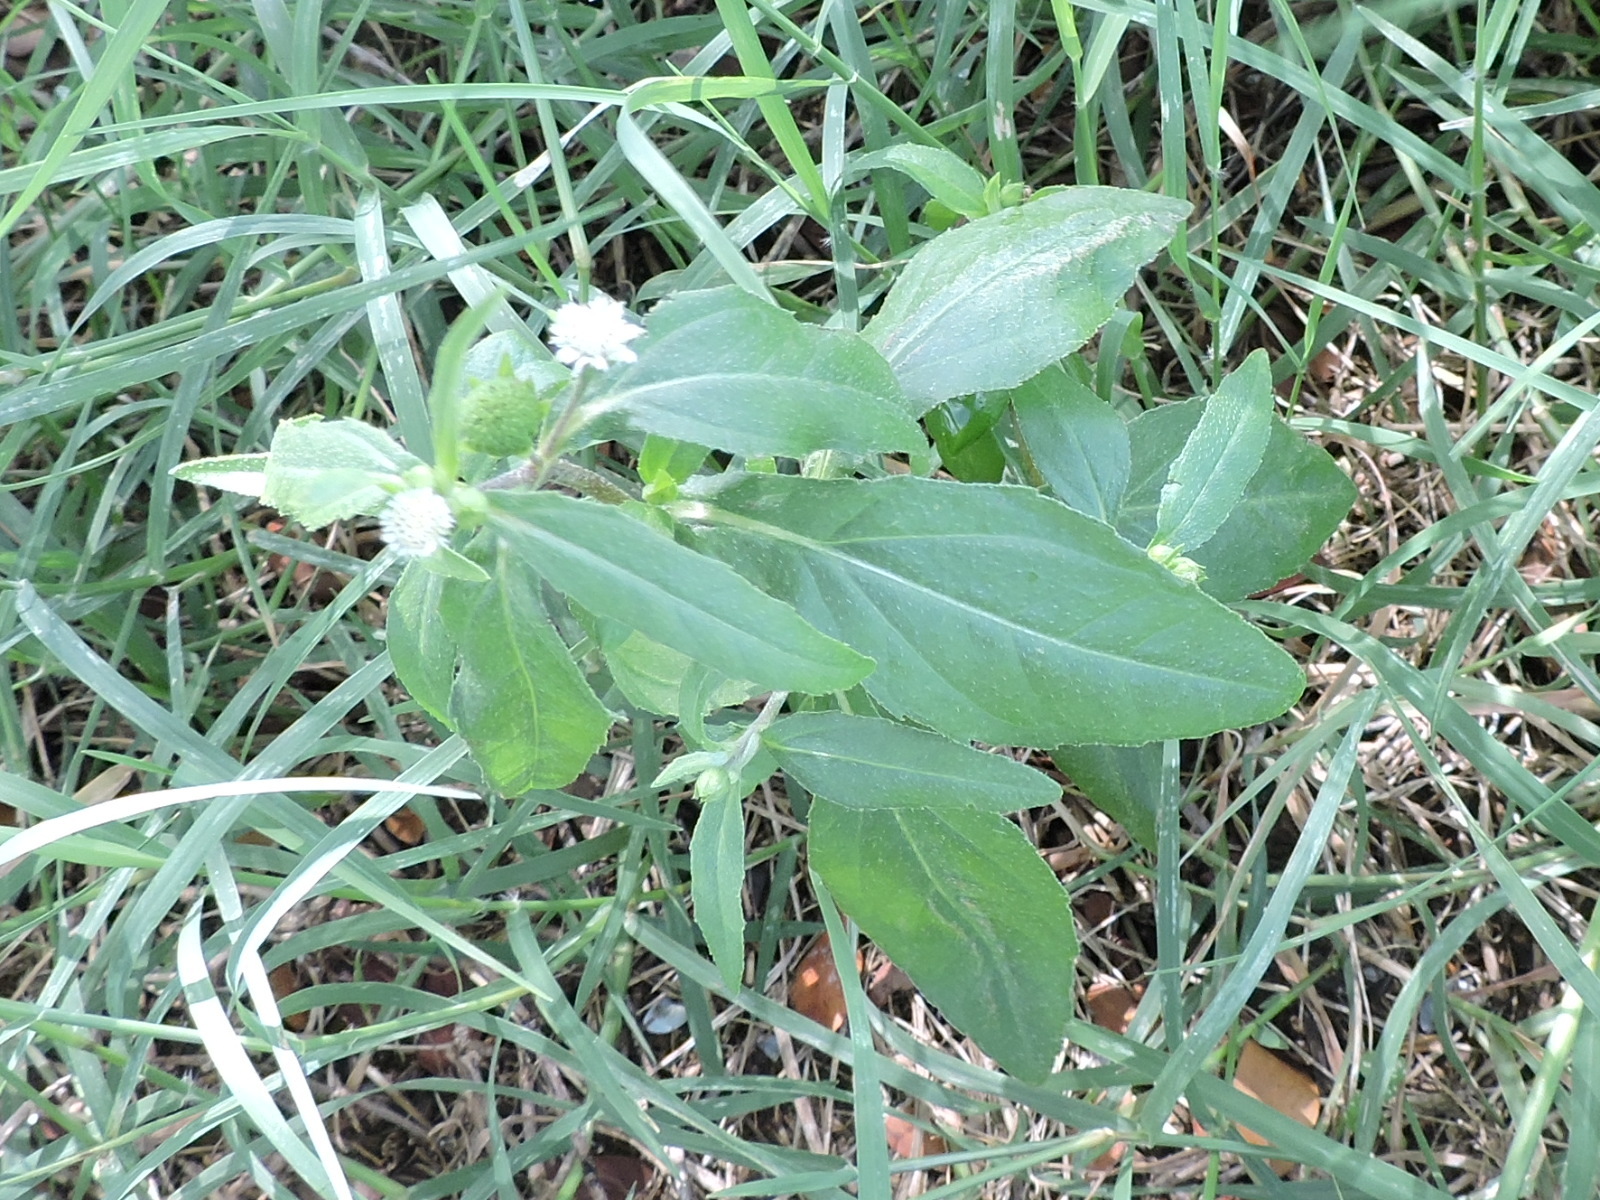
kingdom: Plantae
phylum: Tracheophyta
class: Magnoliopsida
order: Asterales
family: Asteraceae
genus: Eclipta
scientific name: Eclipta prostrata
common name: False daisy
